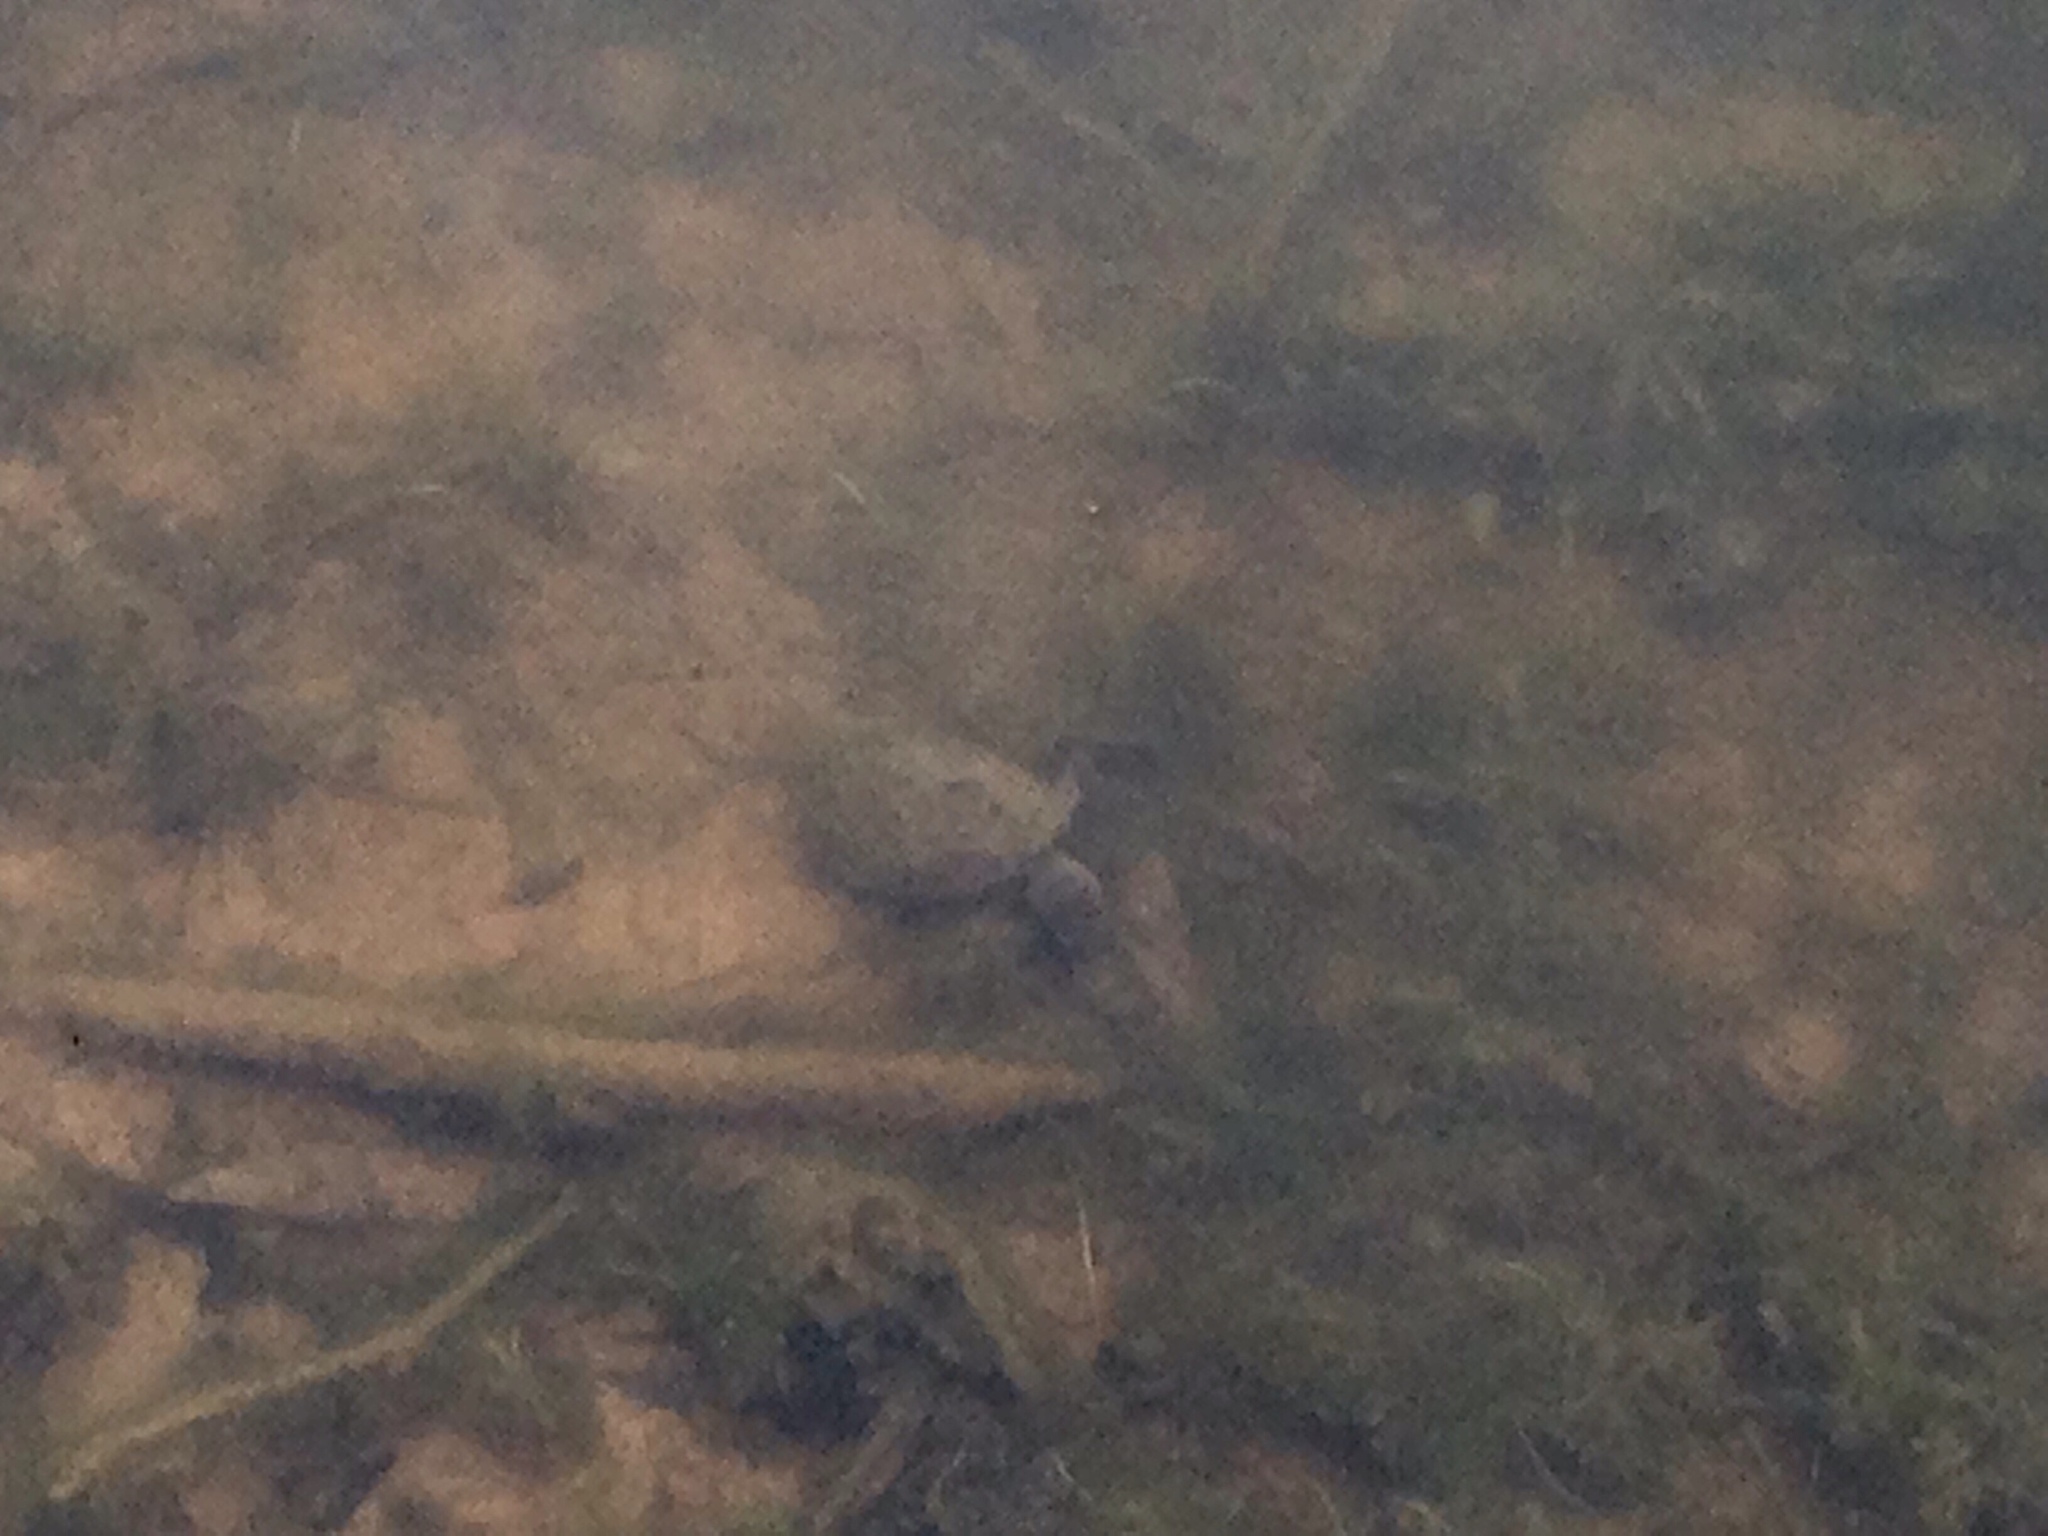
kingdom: Animalia
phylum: Chordata
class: Testudines
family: Kinosternidae
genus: Sternotherus
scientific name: Sternotherus odoratus
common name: Common musk turtle
